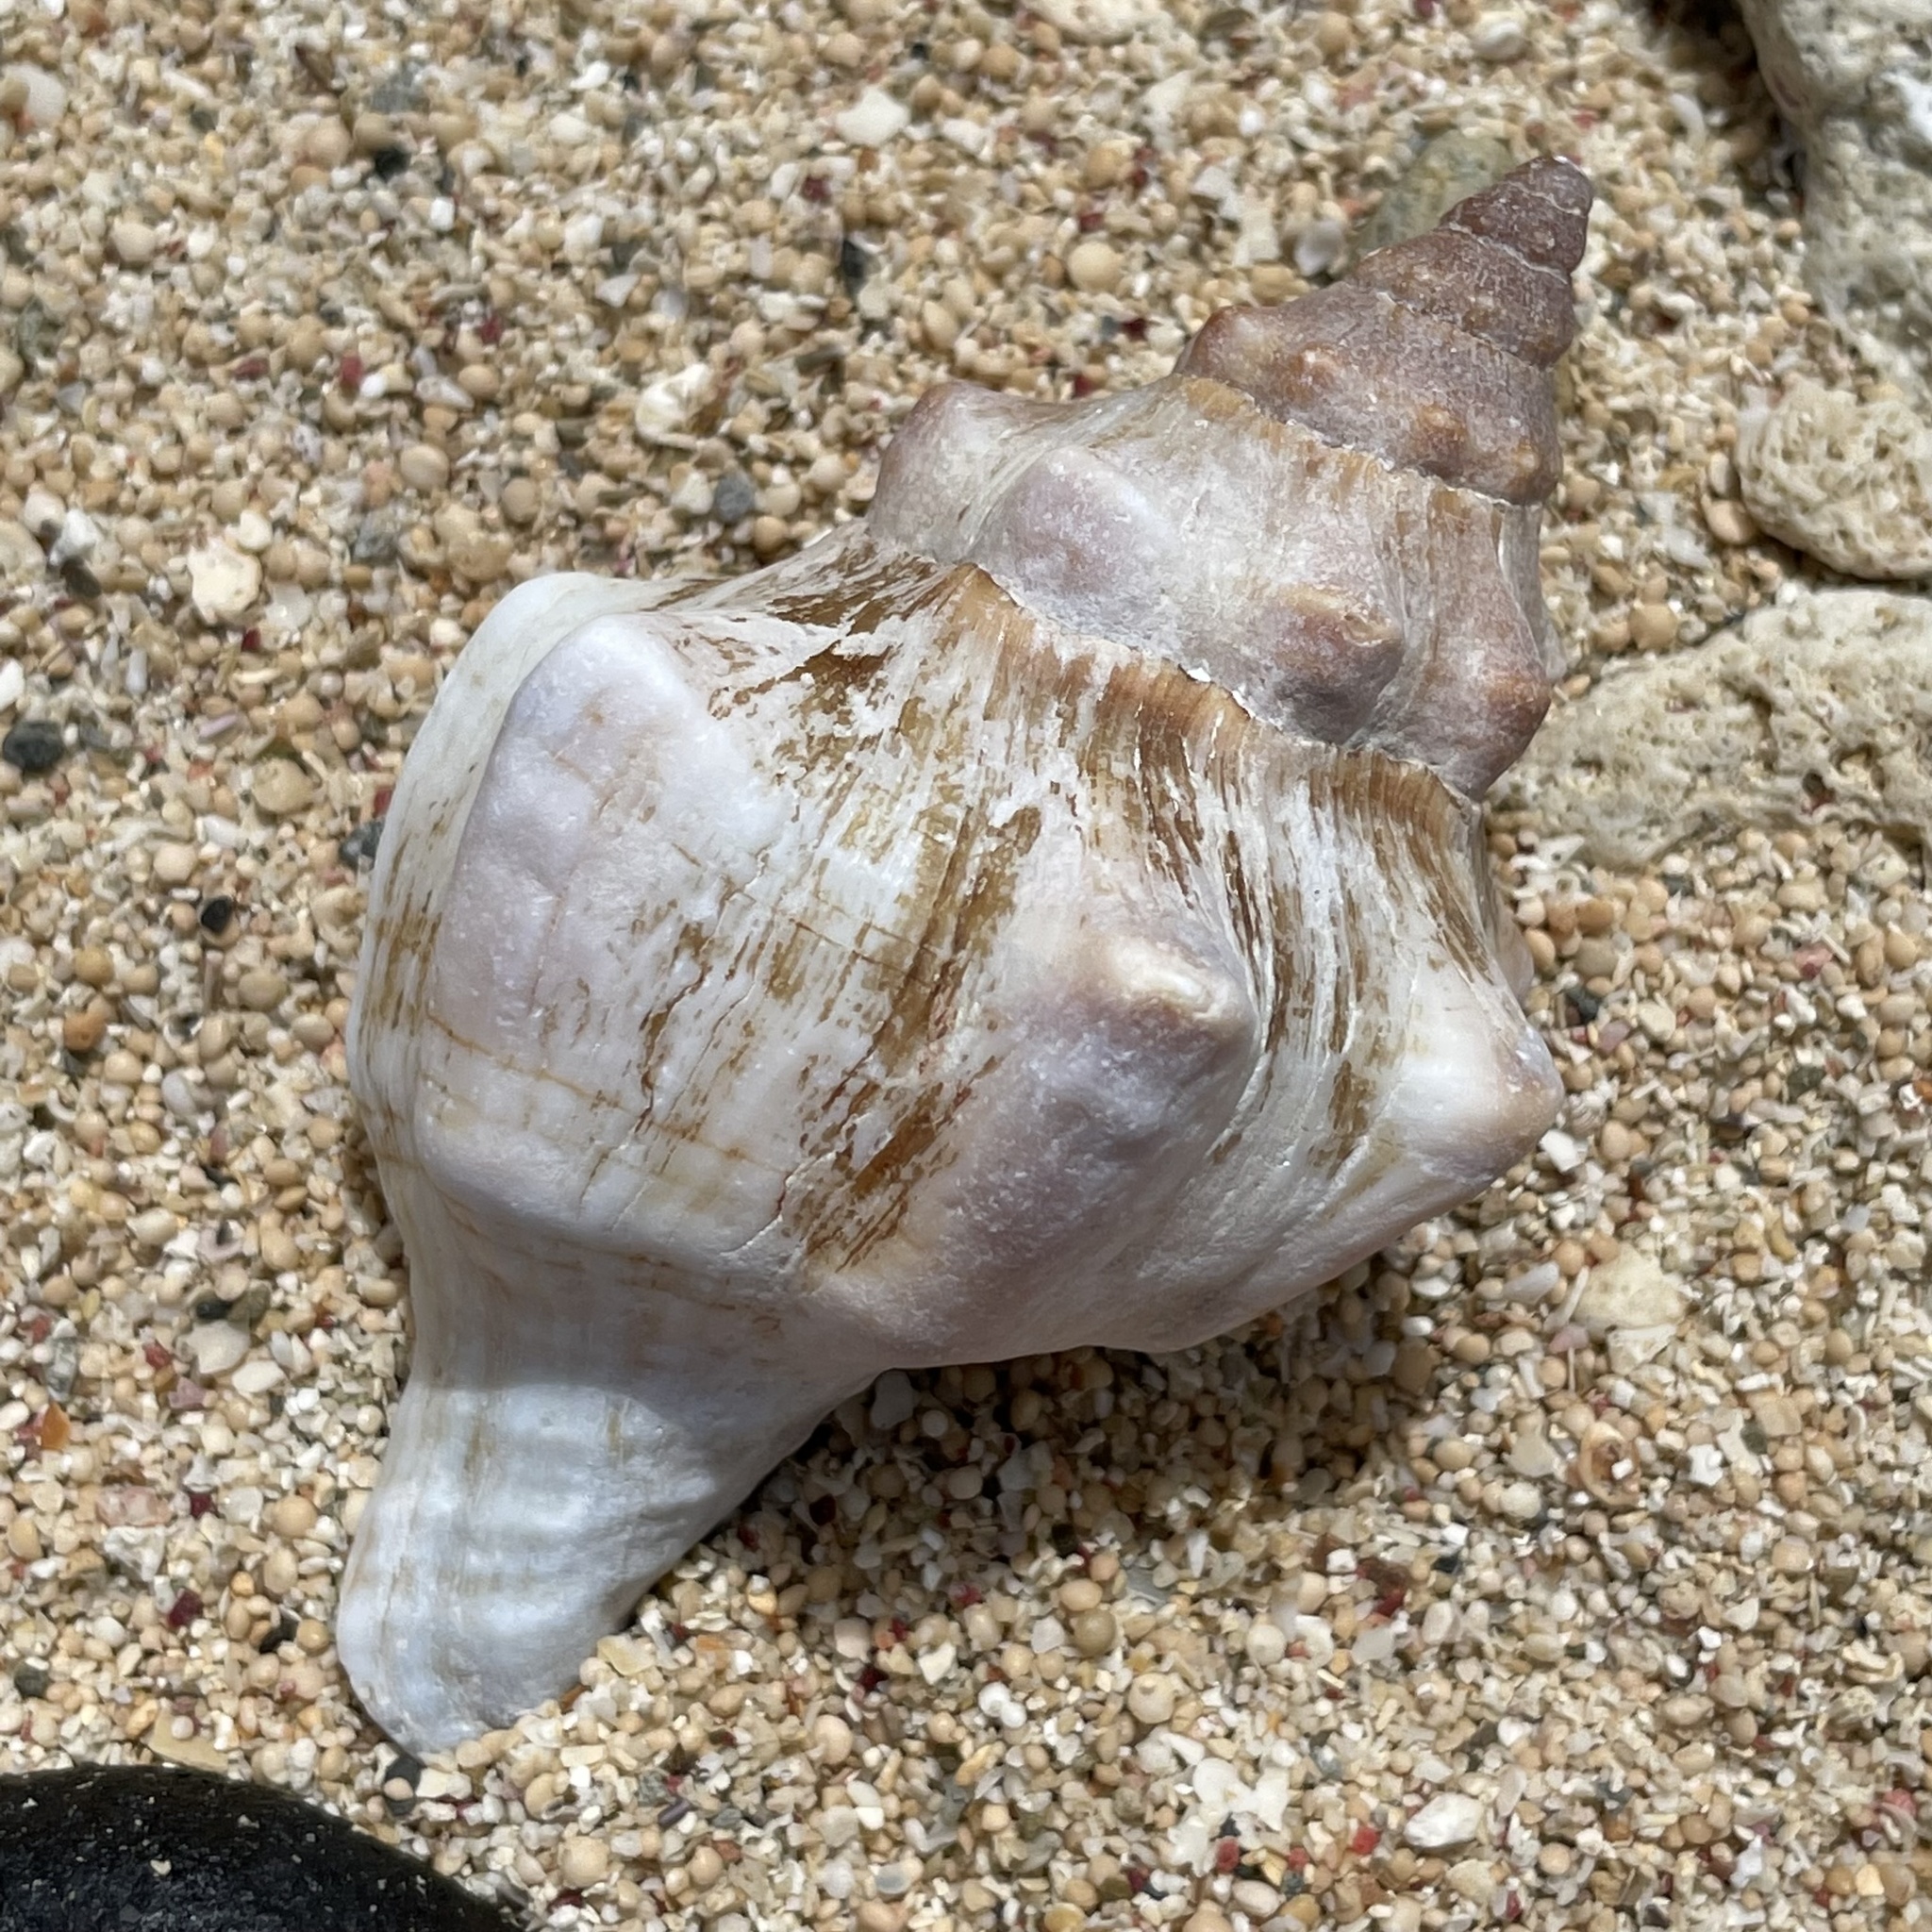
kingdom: Animalia
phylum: Mollusca
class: Gastropoda
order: Neogastropoda
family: Fasciolariidae
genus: Pleuroploca
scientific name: Pleuroploca trapezium
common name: Trapeze horseconch
